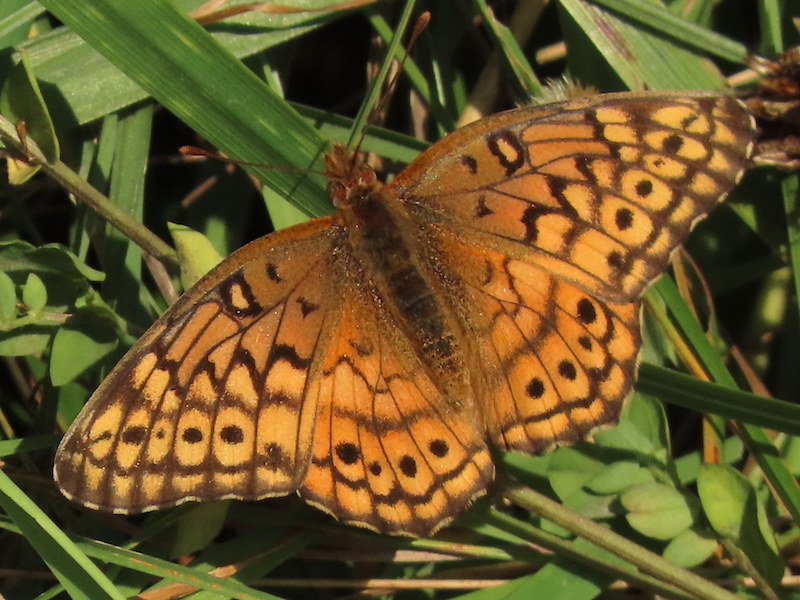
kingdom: Animalia
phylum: Arthropoda
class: Insecta
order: Lepidoptera
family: Nymphalidae
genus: Euptoieta
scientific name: Euptoieta claudia
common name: Variegated fritillary
